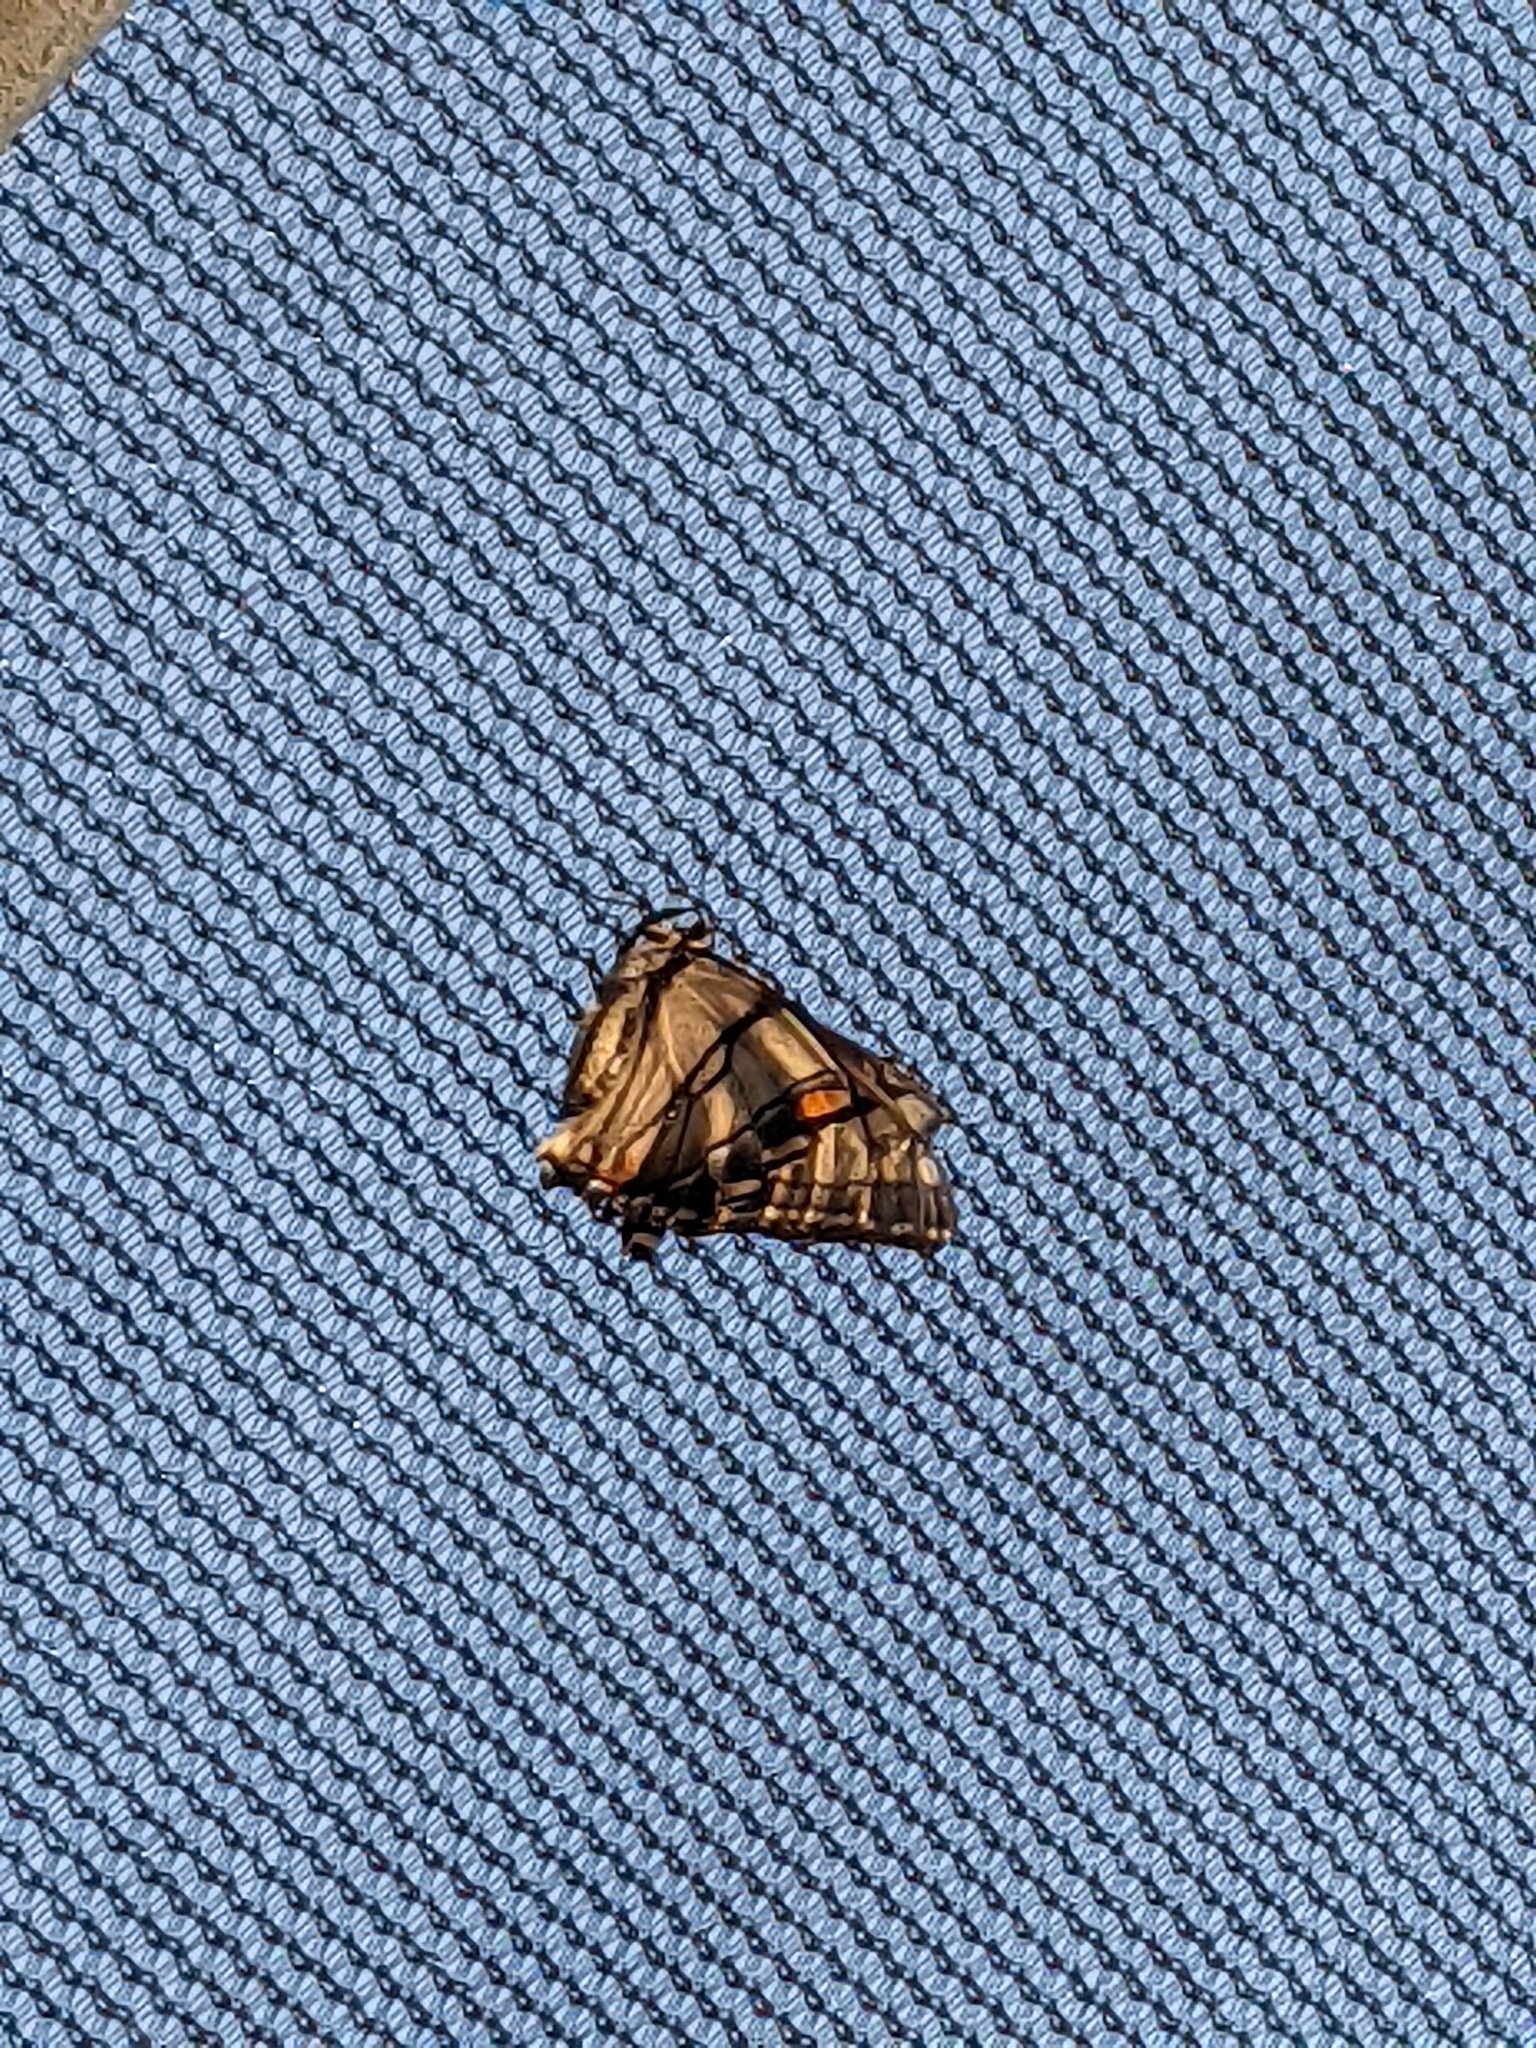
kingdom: Animalia
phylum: Arthropoda
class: Insecta
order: Lepidoptera
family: Papilionidae
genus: Papilio
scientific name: Papilio glaucus
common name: Tiger swallowtail
